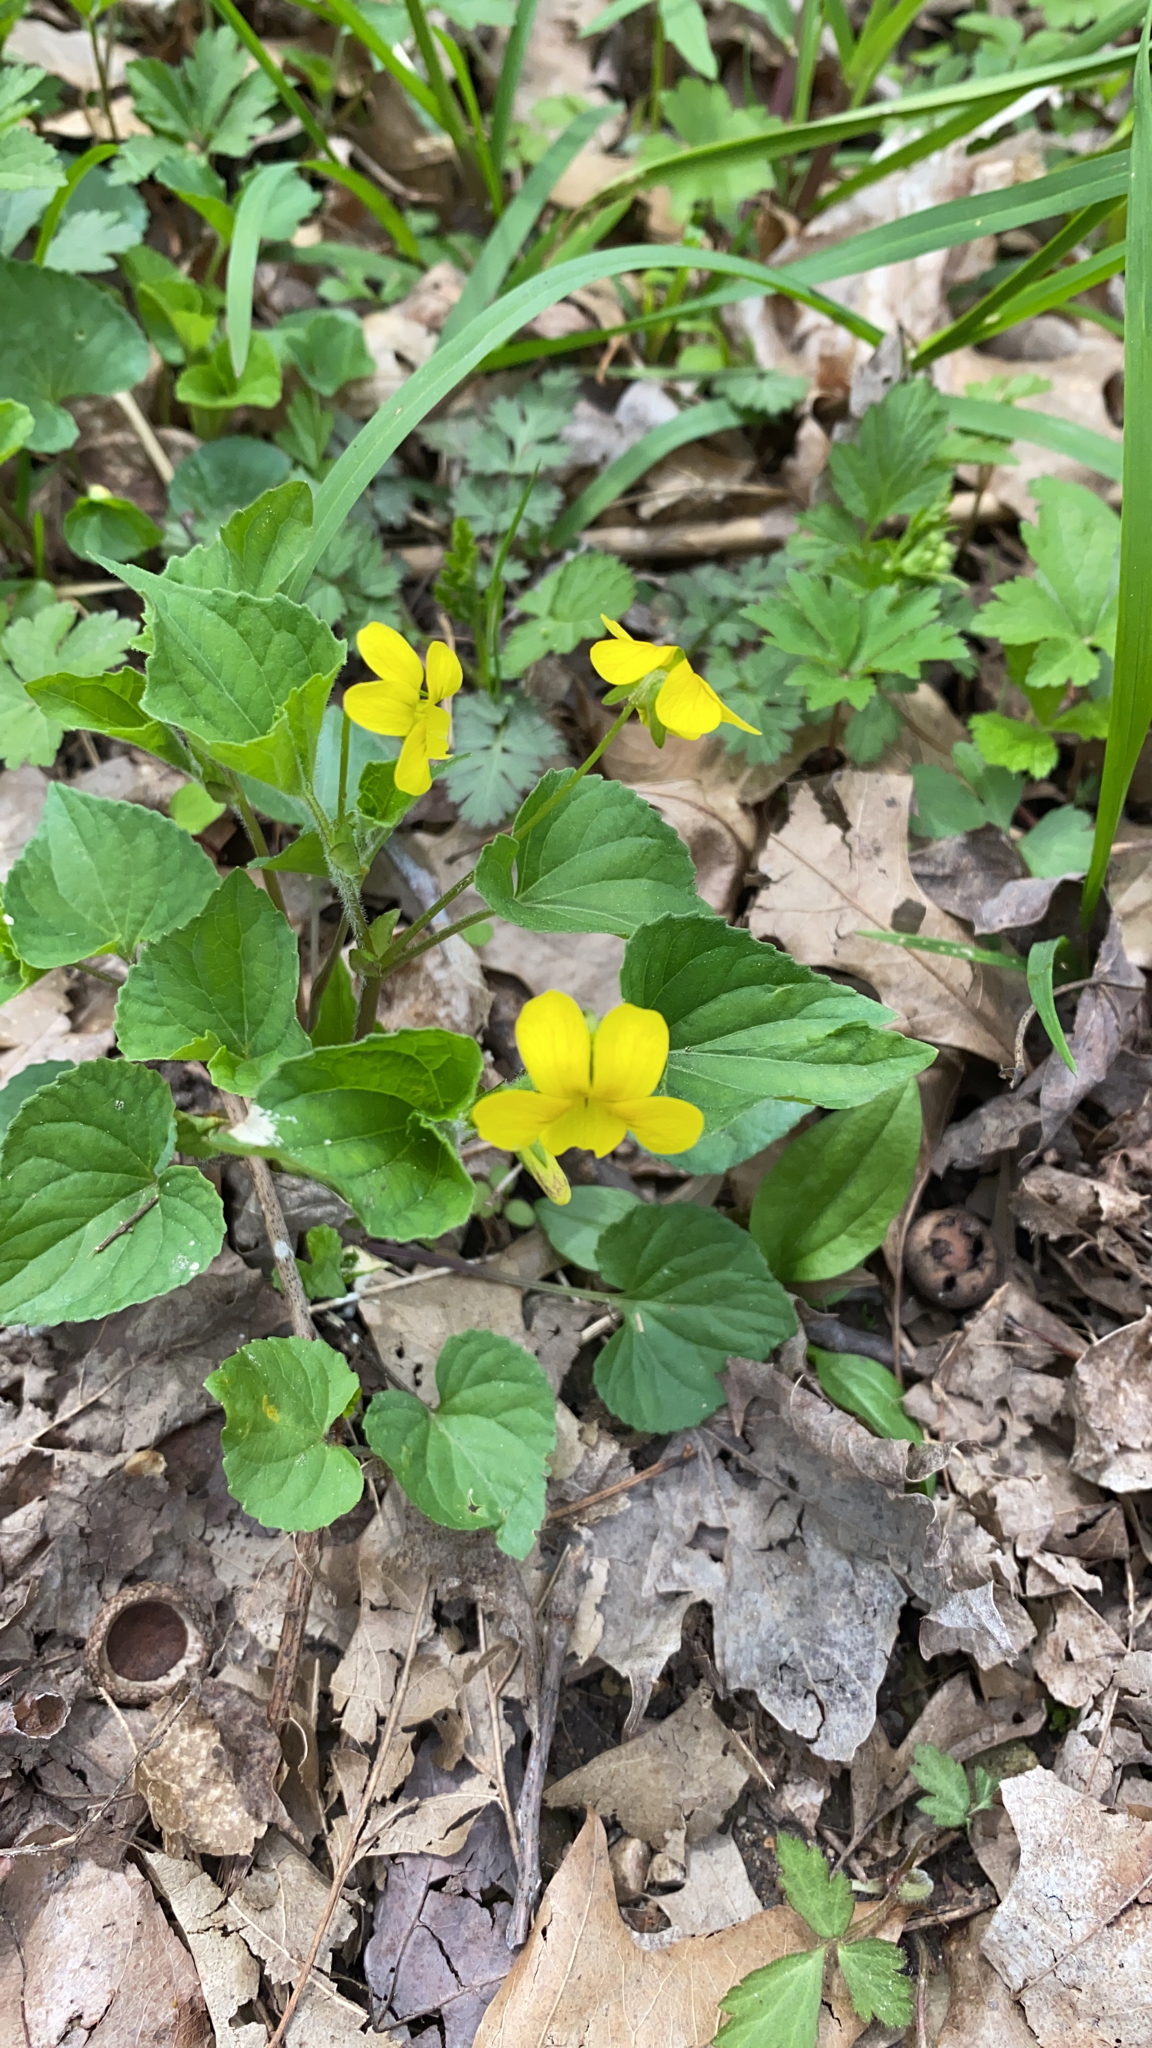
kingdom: Plantae
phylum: Tracheophyta
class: Magnoliopsida
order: Malpighiales
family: Violaceae
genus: Viola
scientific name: Viola eriocarpa
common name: Smooth yellow violet
